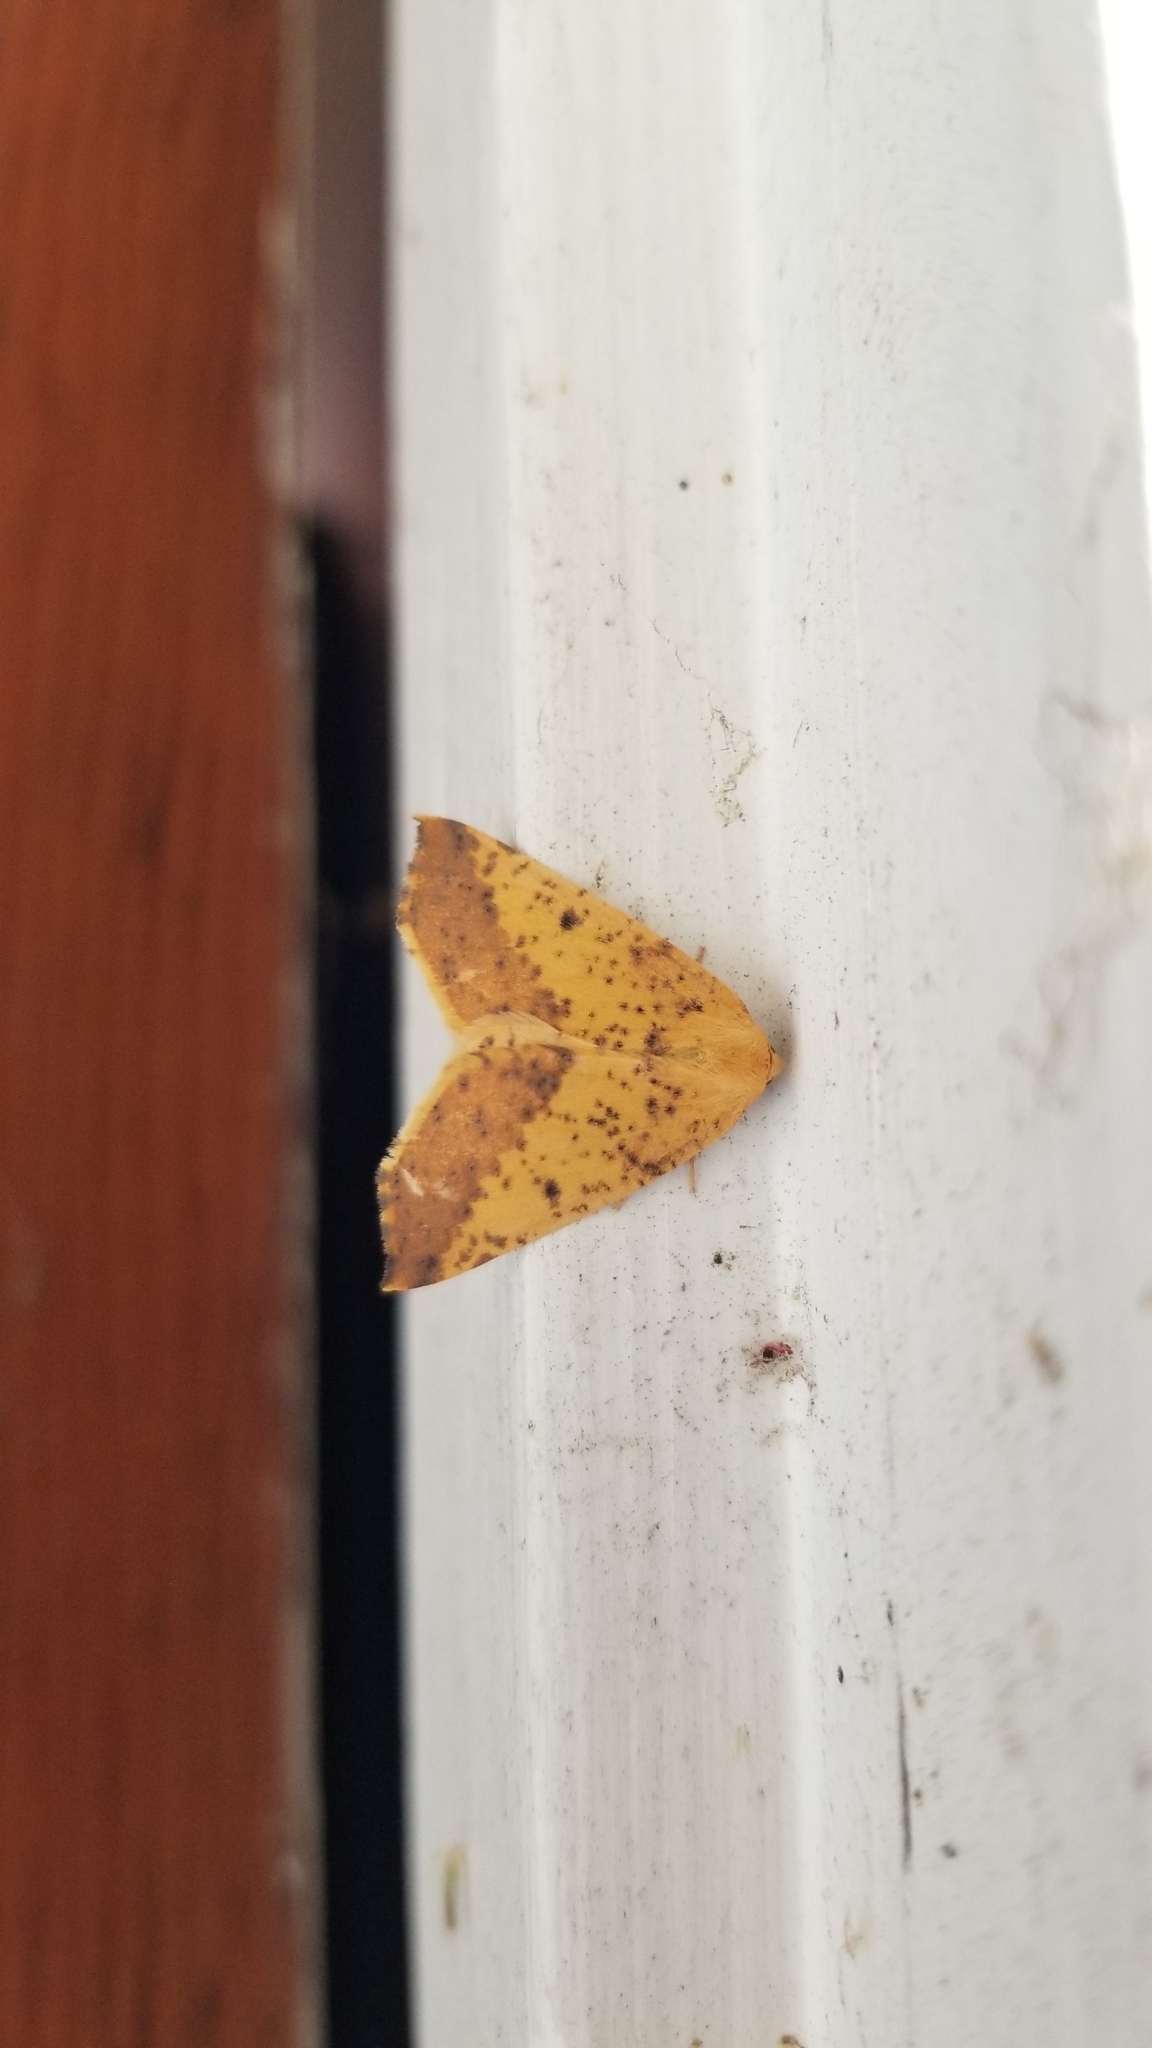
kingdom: Animalia
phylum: Arthropoda
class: Insecta
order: Lepidoptera
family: Geometridae
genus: Neoterpes
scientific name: Neoterpes edwardsata
